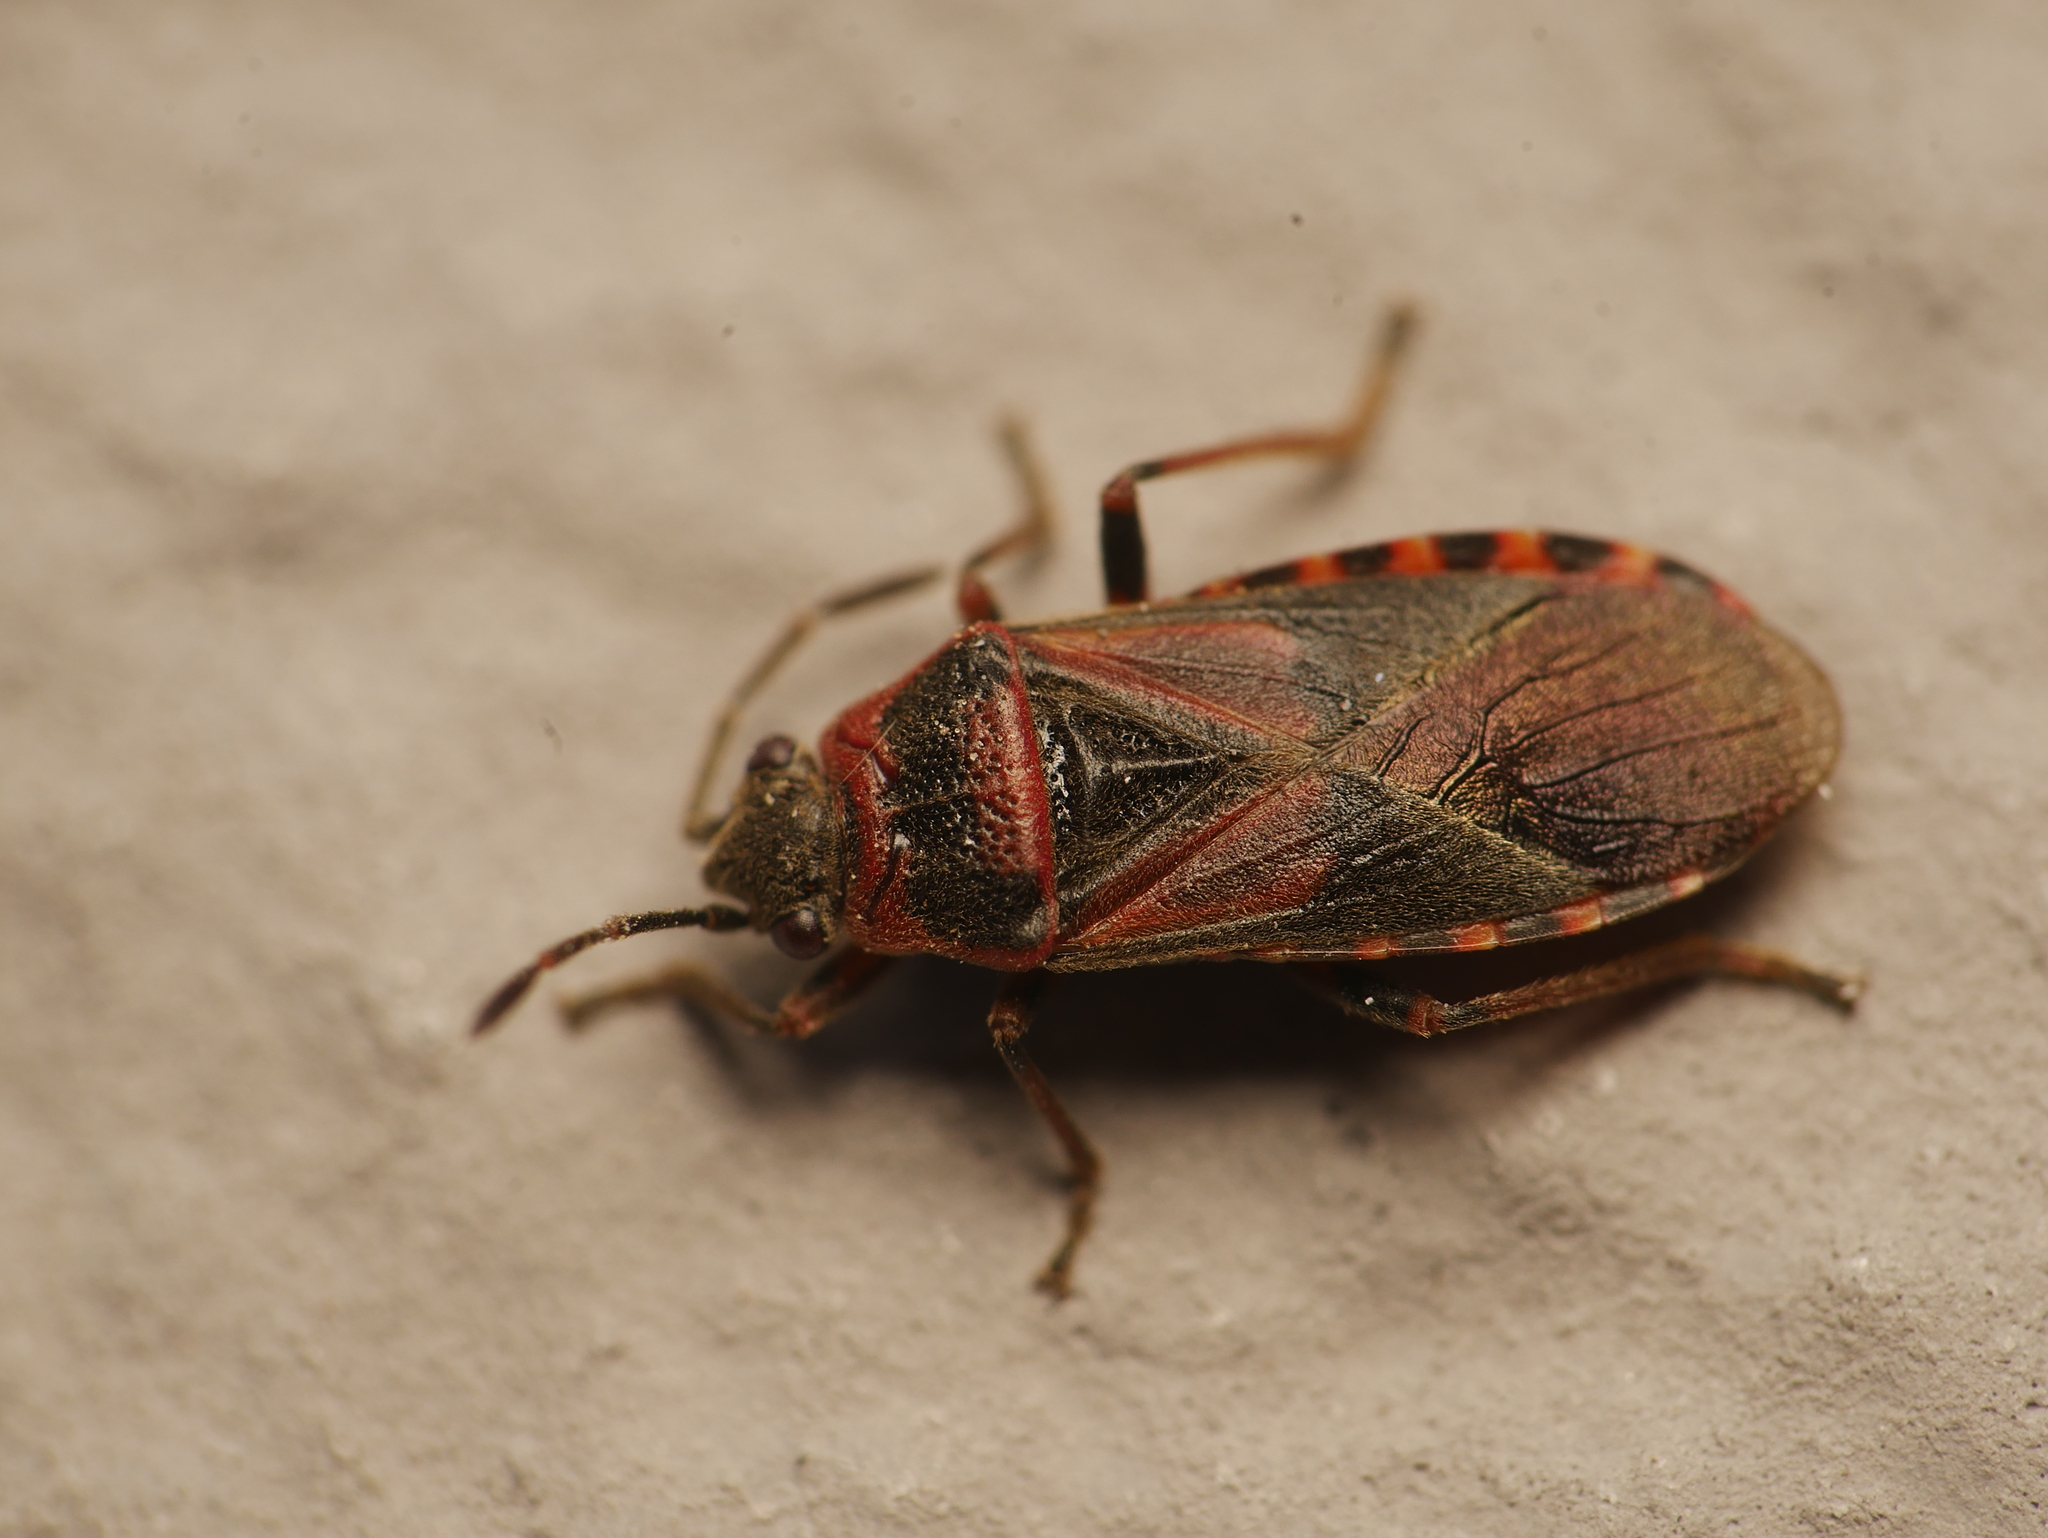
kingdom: Animalia
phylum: Arthropoda
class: Insecta
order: Hemiptera
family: Lygaeidae
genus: Arocatus
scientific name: Arocatus melanocephalus
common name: Lygaeid bug
